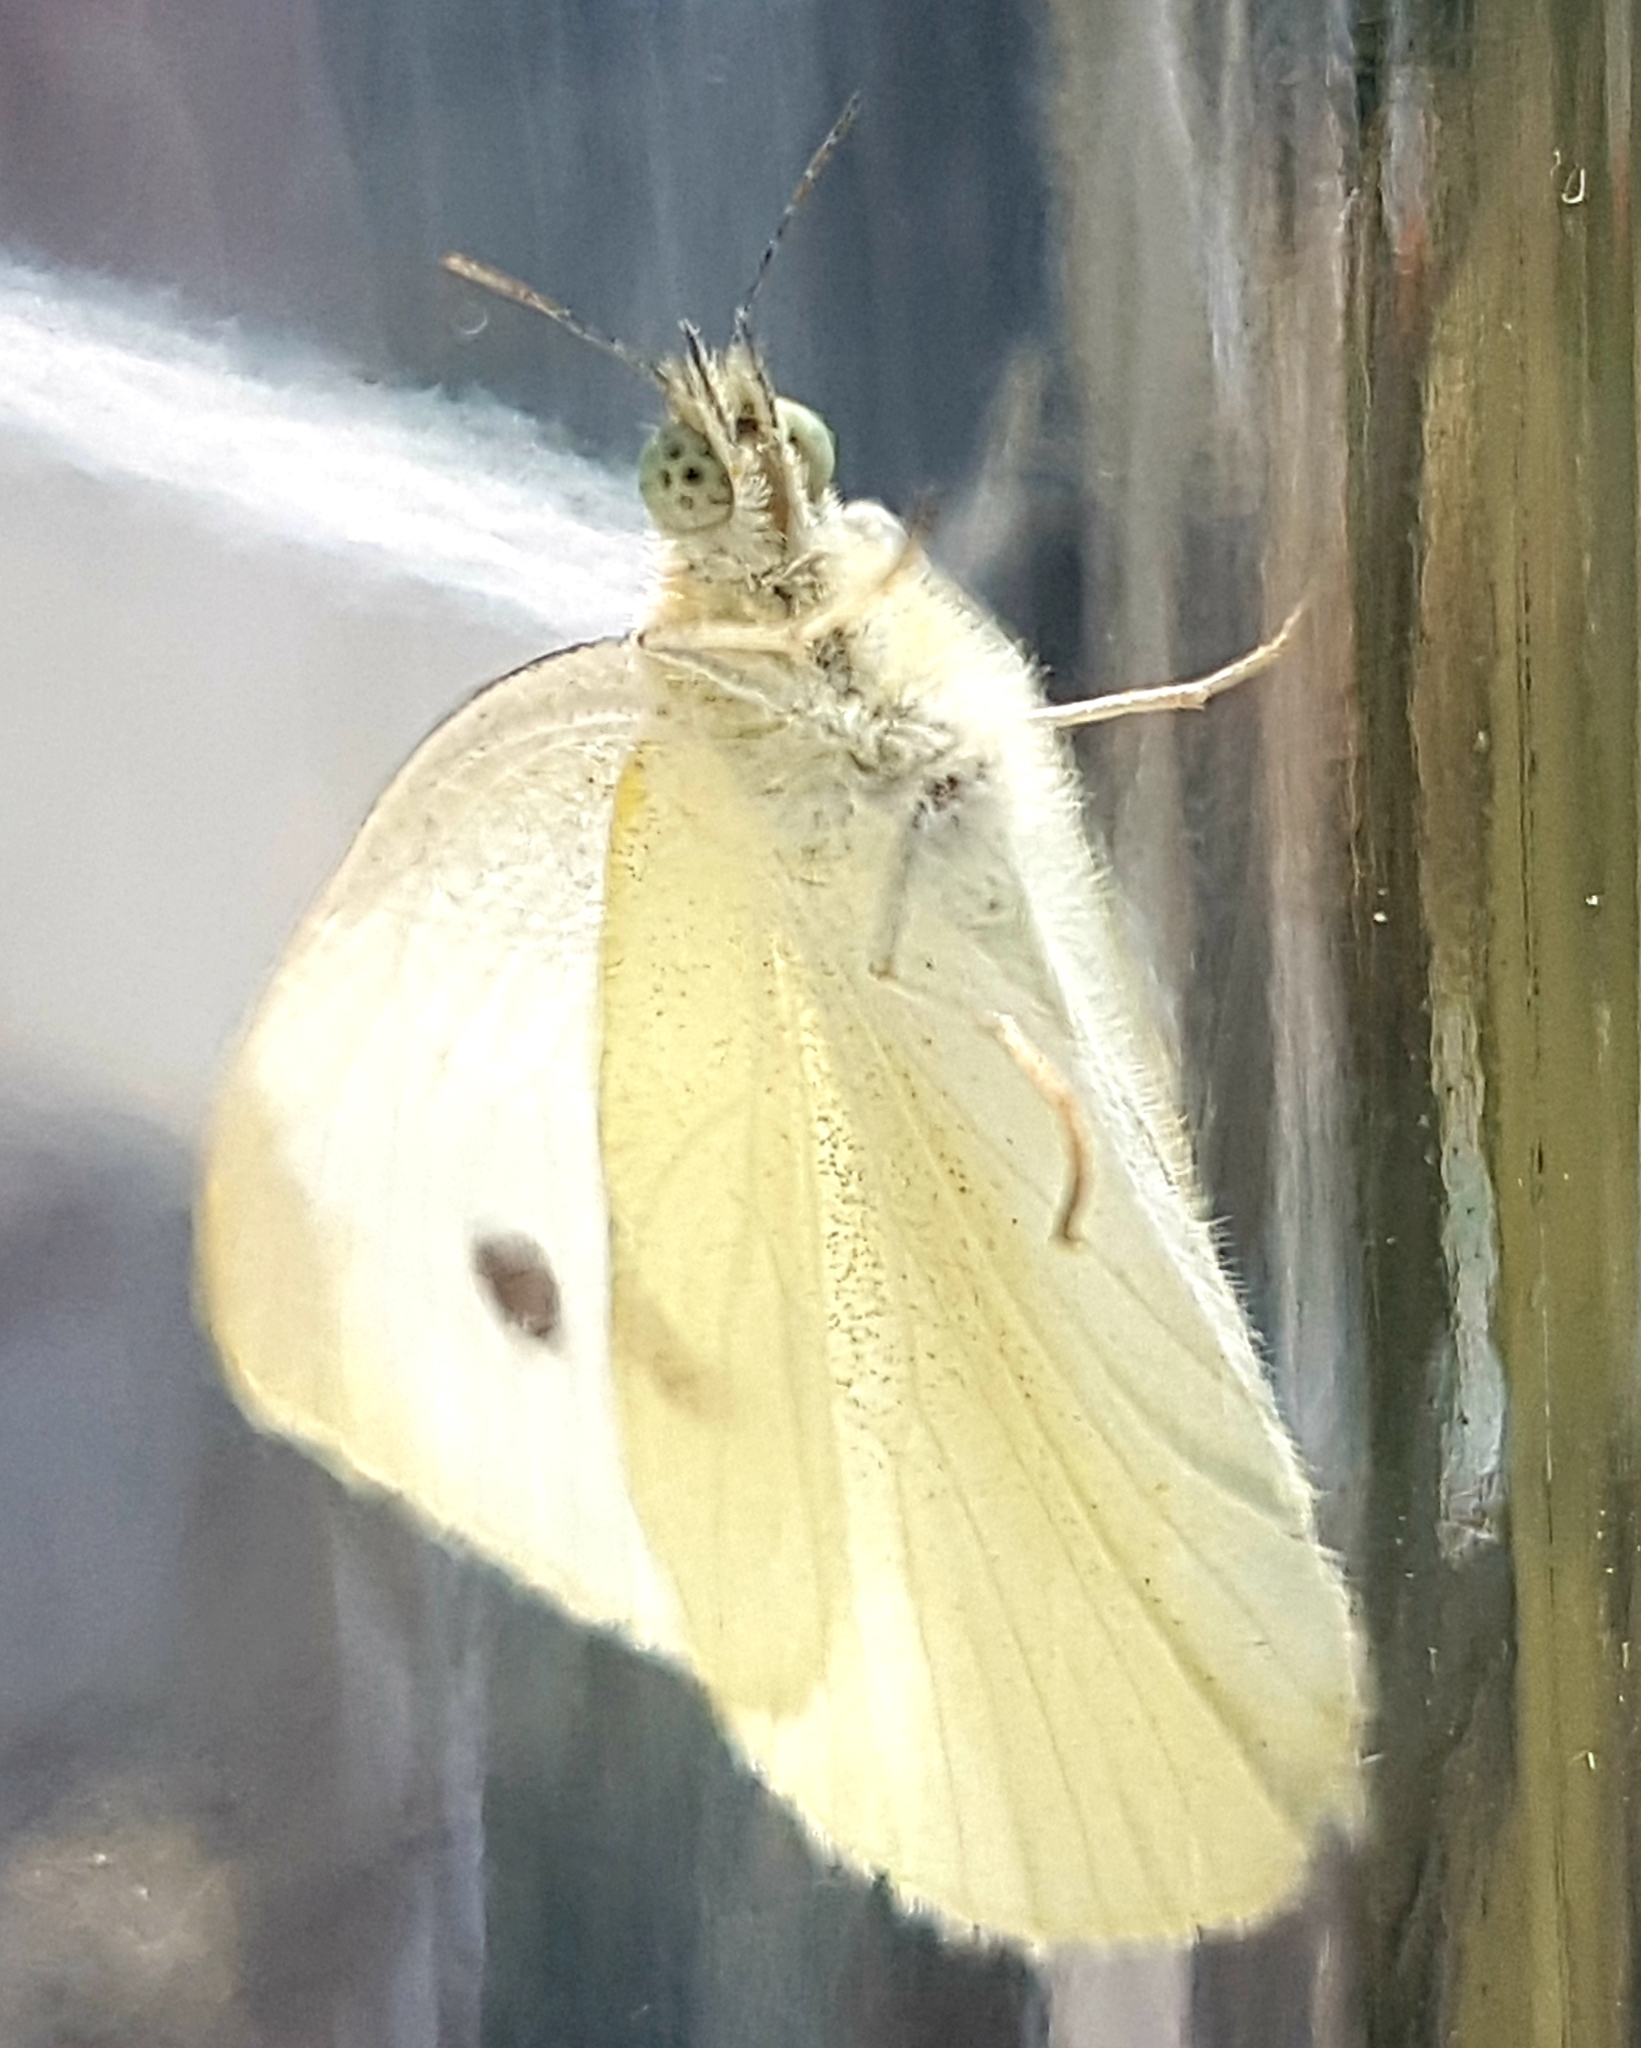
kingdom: Animalia
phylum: Arthropoda
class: Insecta
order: Lepidoptera
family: Pieridae
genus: Pieris
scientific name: Pieris rapae
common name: Small white
